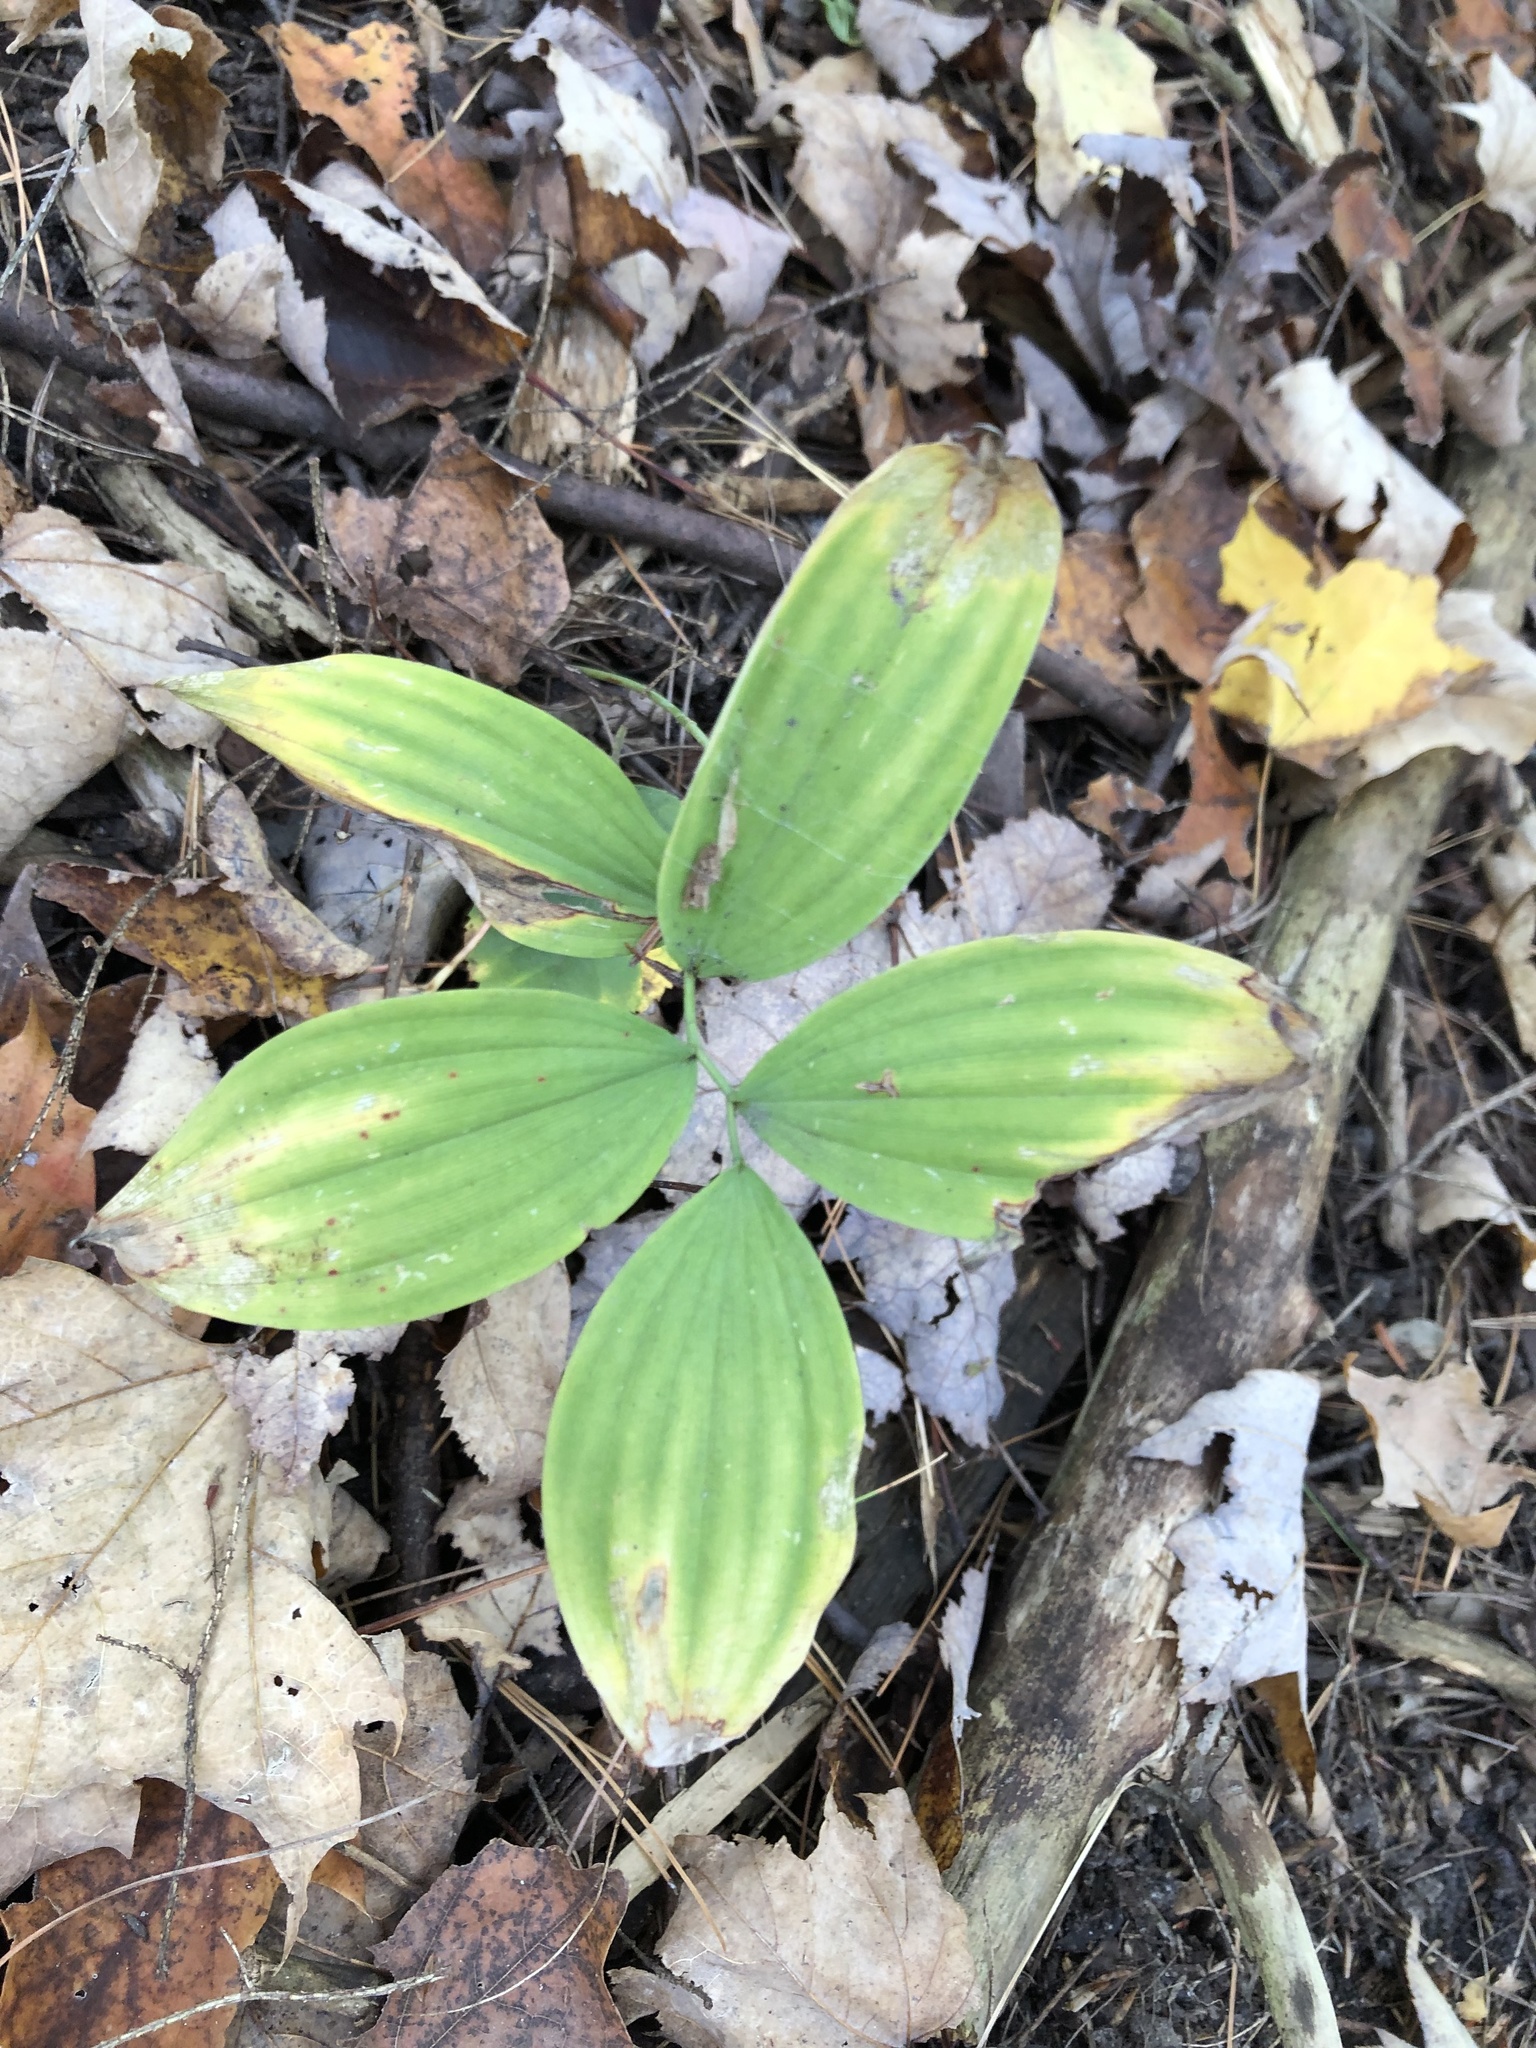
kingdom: Plantae
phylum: Tracheophyta
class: Liliopsida
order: Asparagales
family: Asparagaceae
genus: Polygonatum
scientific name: Polygonatum pubescens
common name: Downy solomon's seal
